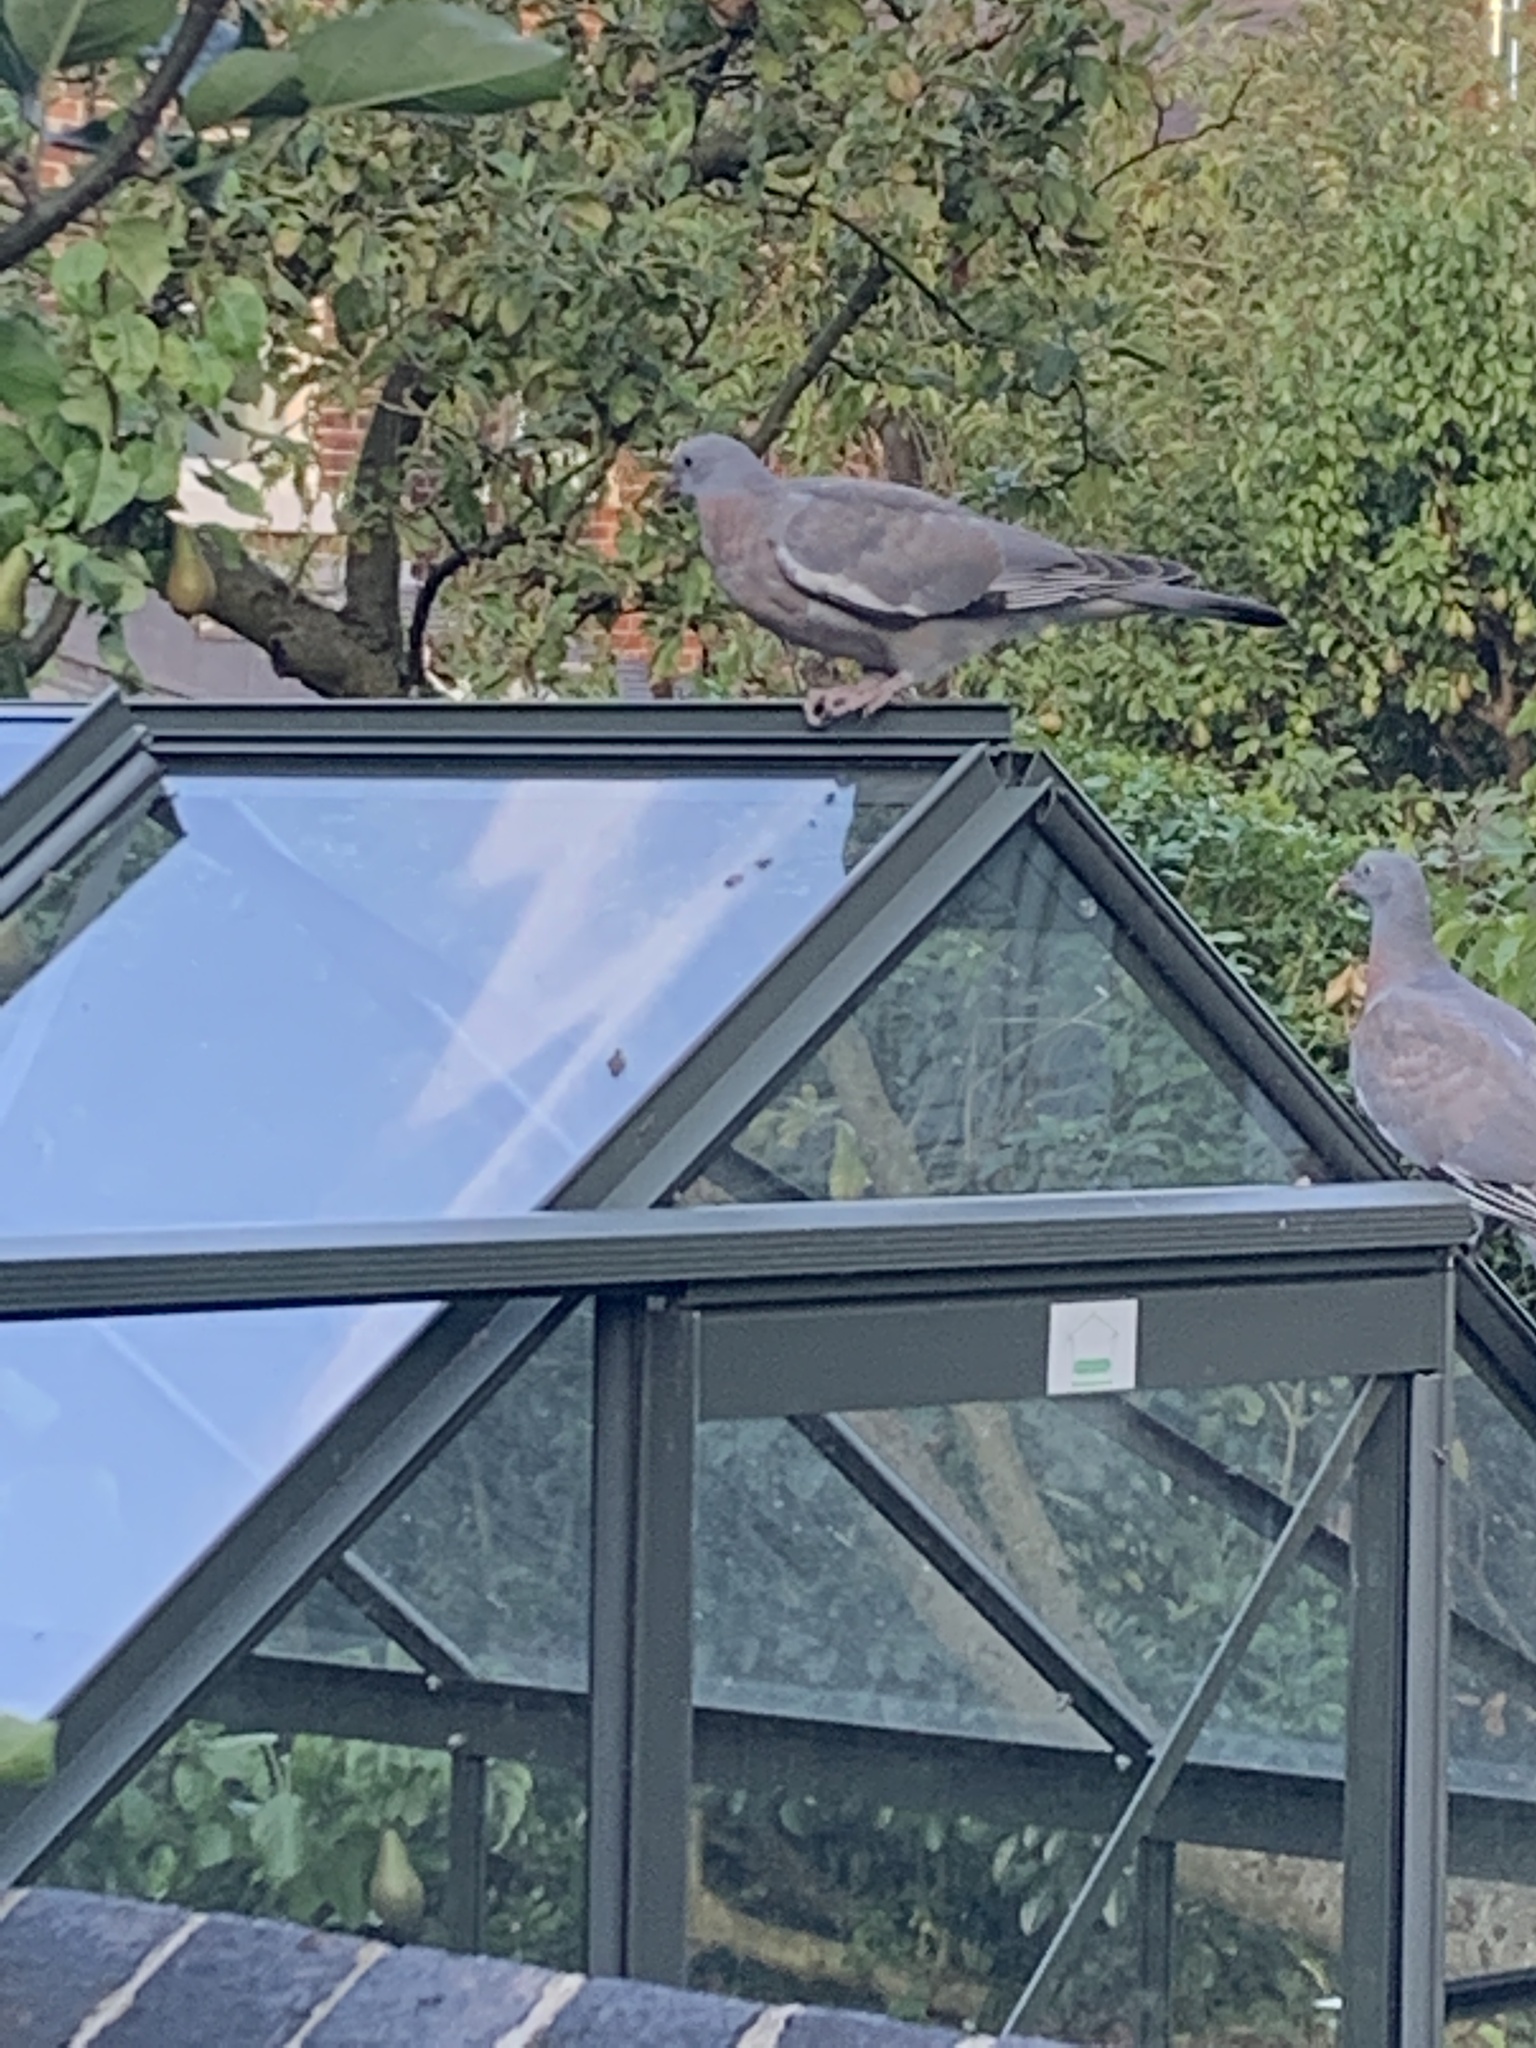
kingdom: Animalia
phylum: Chordata
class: Aves
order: Columbiformes
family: Columbidae
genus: Columba
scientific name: Columba palumbus
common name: Common wood pigeon
